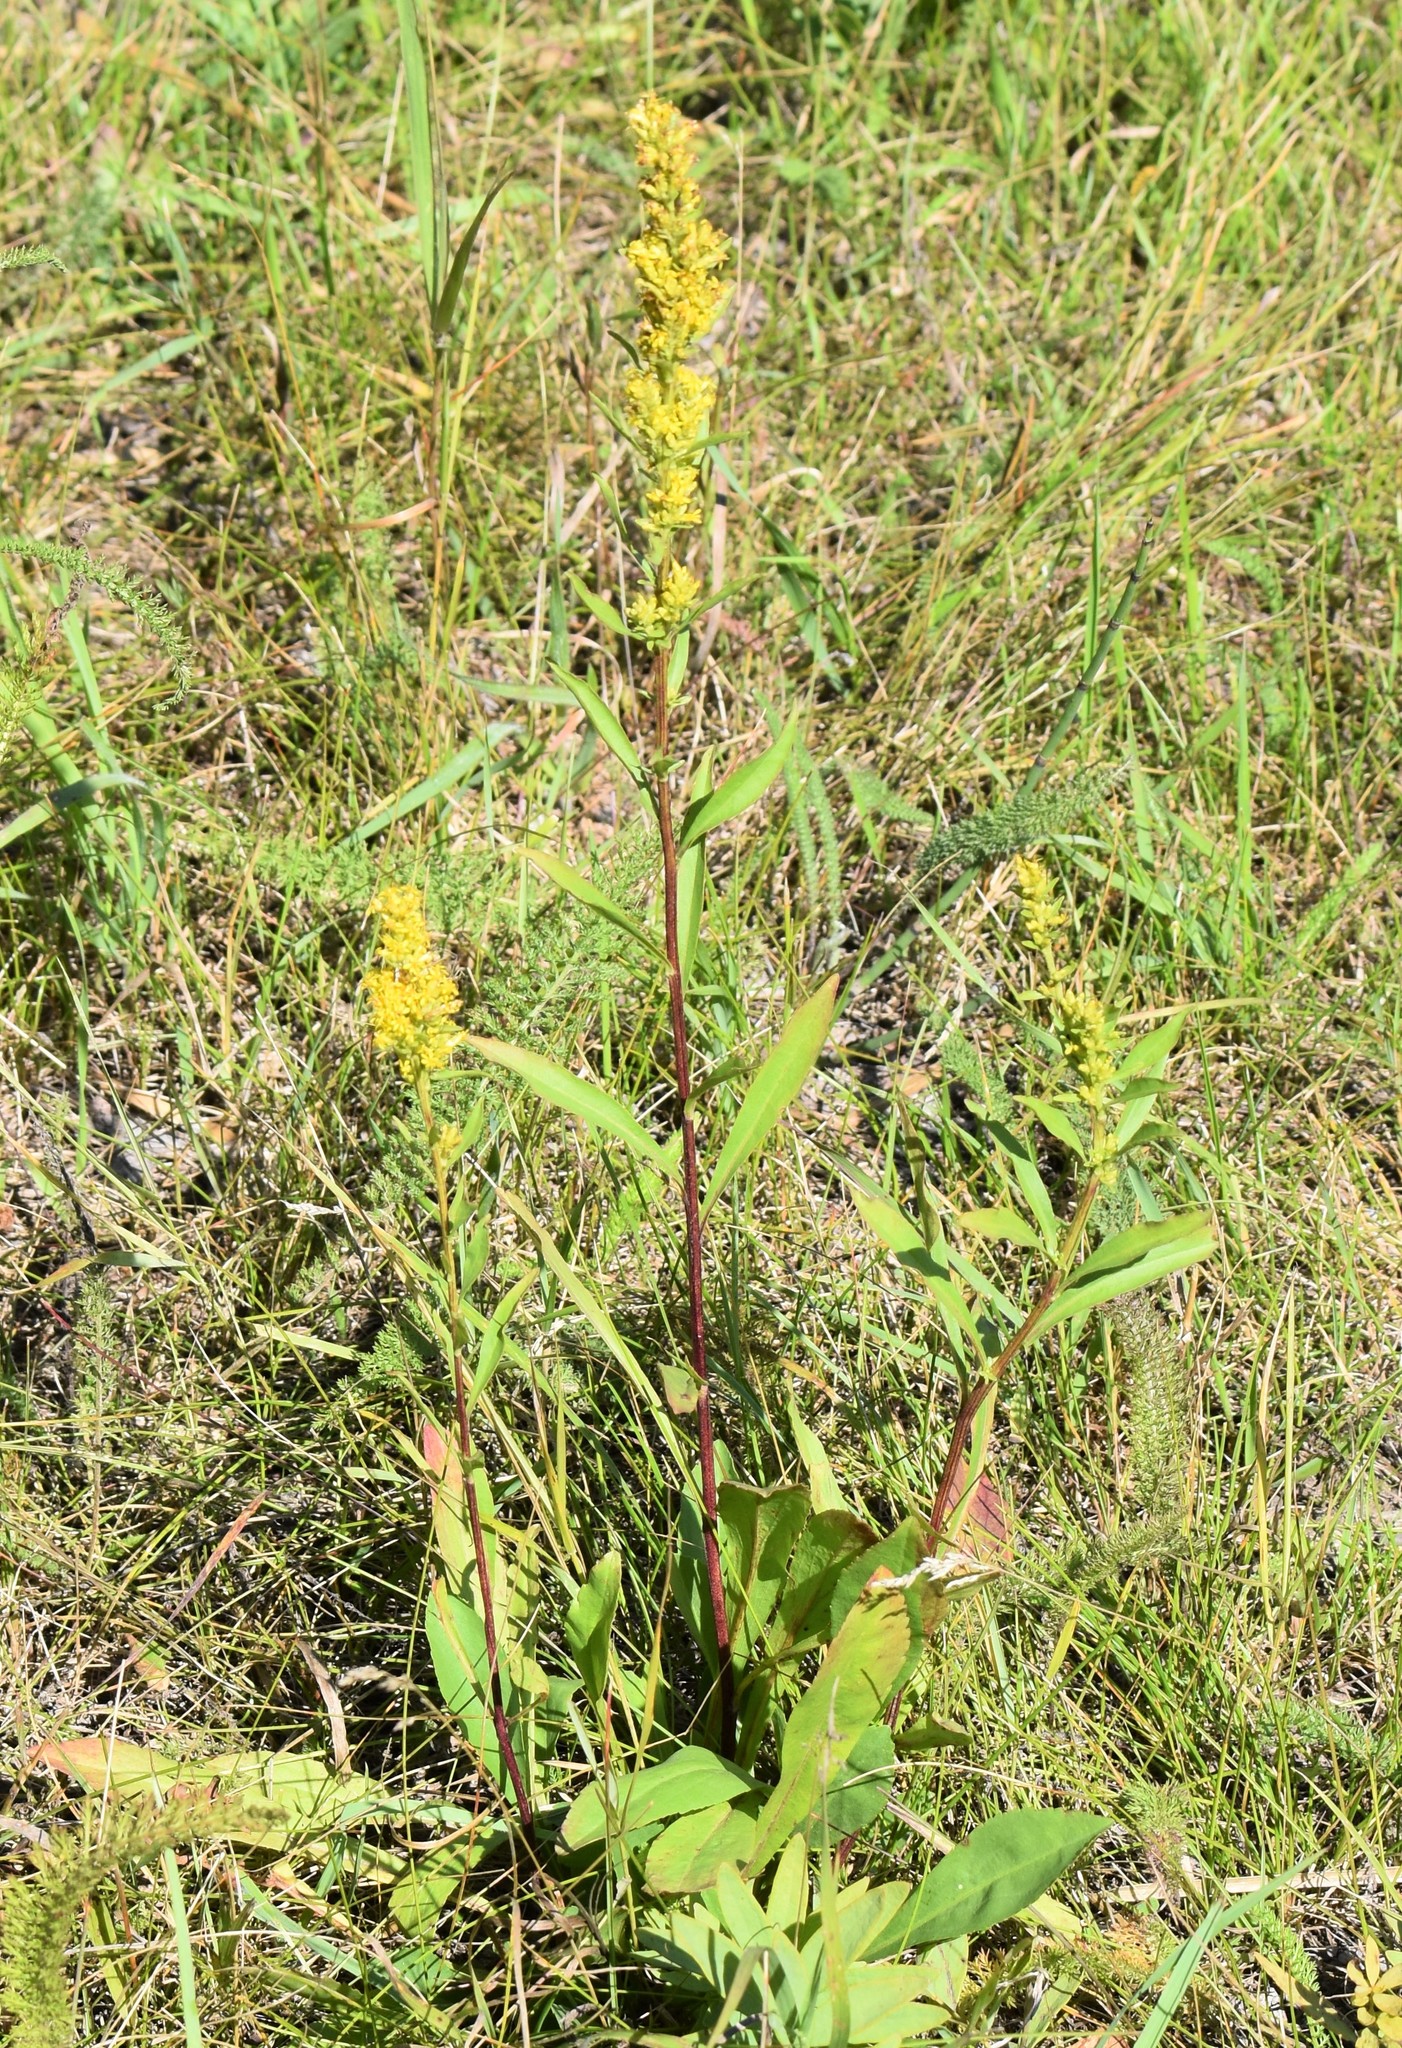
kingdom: Plantae
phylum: Tracheophyta
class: Magnoliopsida
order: Asterales
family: Asteraceae
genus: Solidago
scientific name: Solidago missouriensis
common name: Prairie goldenrod
